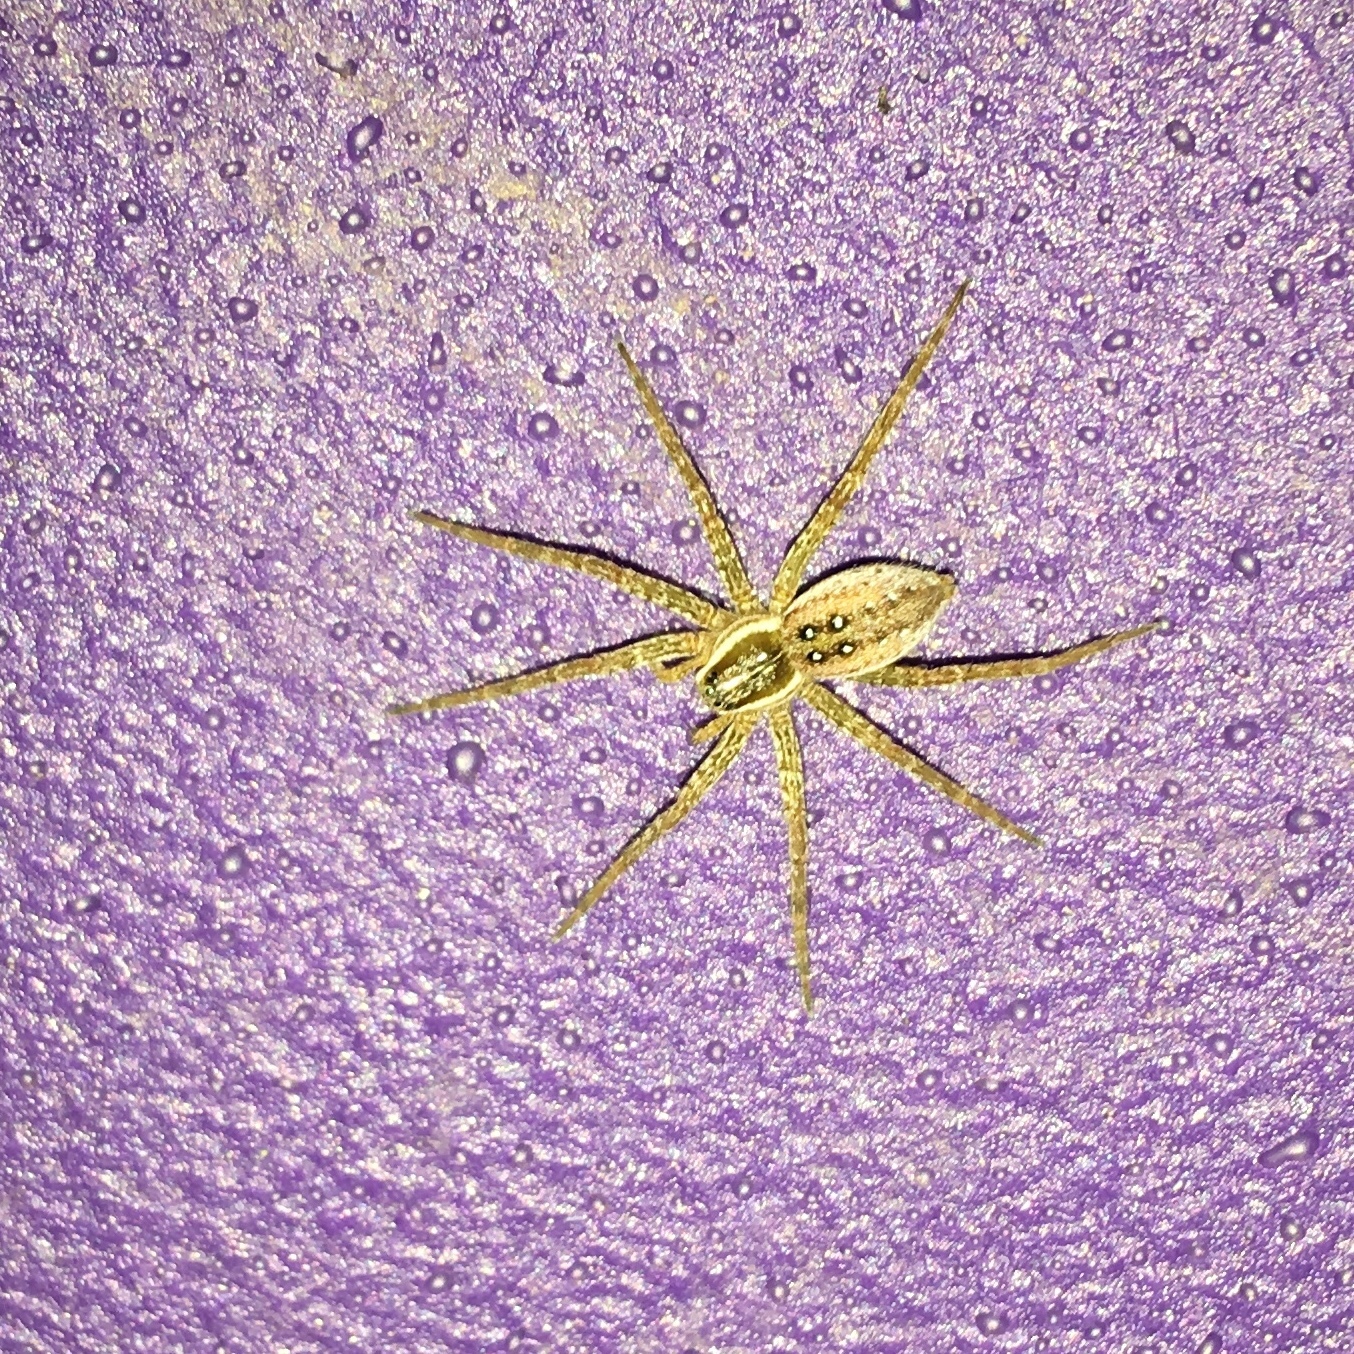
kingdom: Animalia
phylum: Arthropoda
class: Arachnida
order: Araneae
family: Pisauridae
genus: Dolomedes
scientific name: Dolomedes triton
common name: Six-spotted fishing spider
